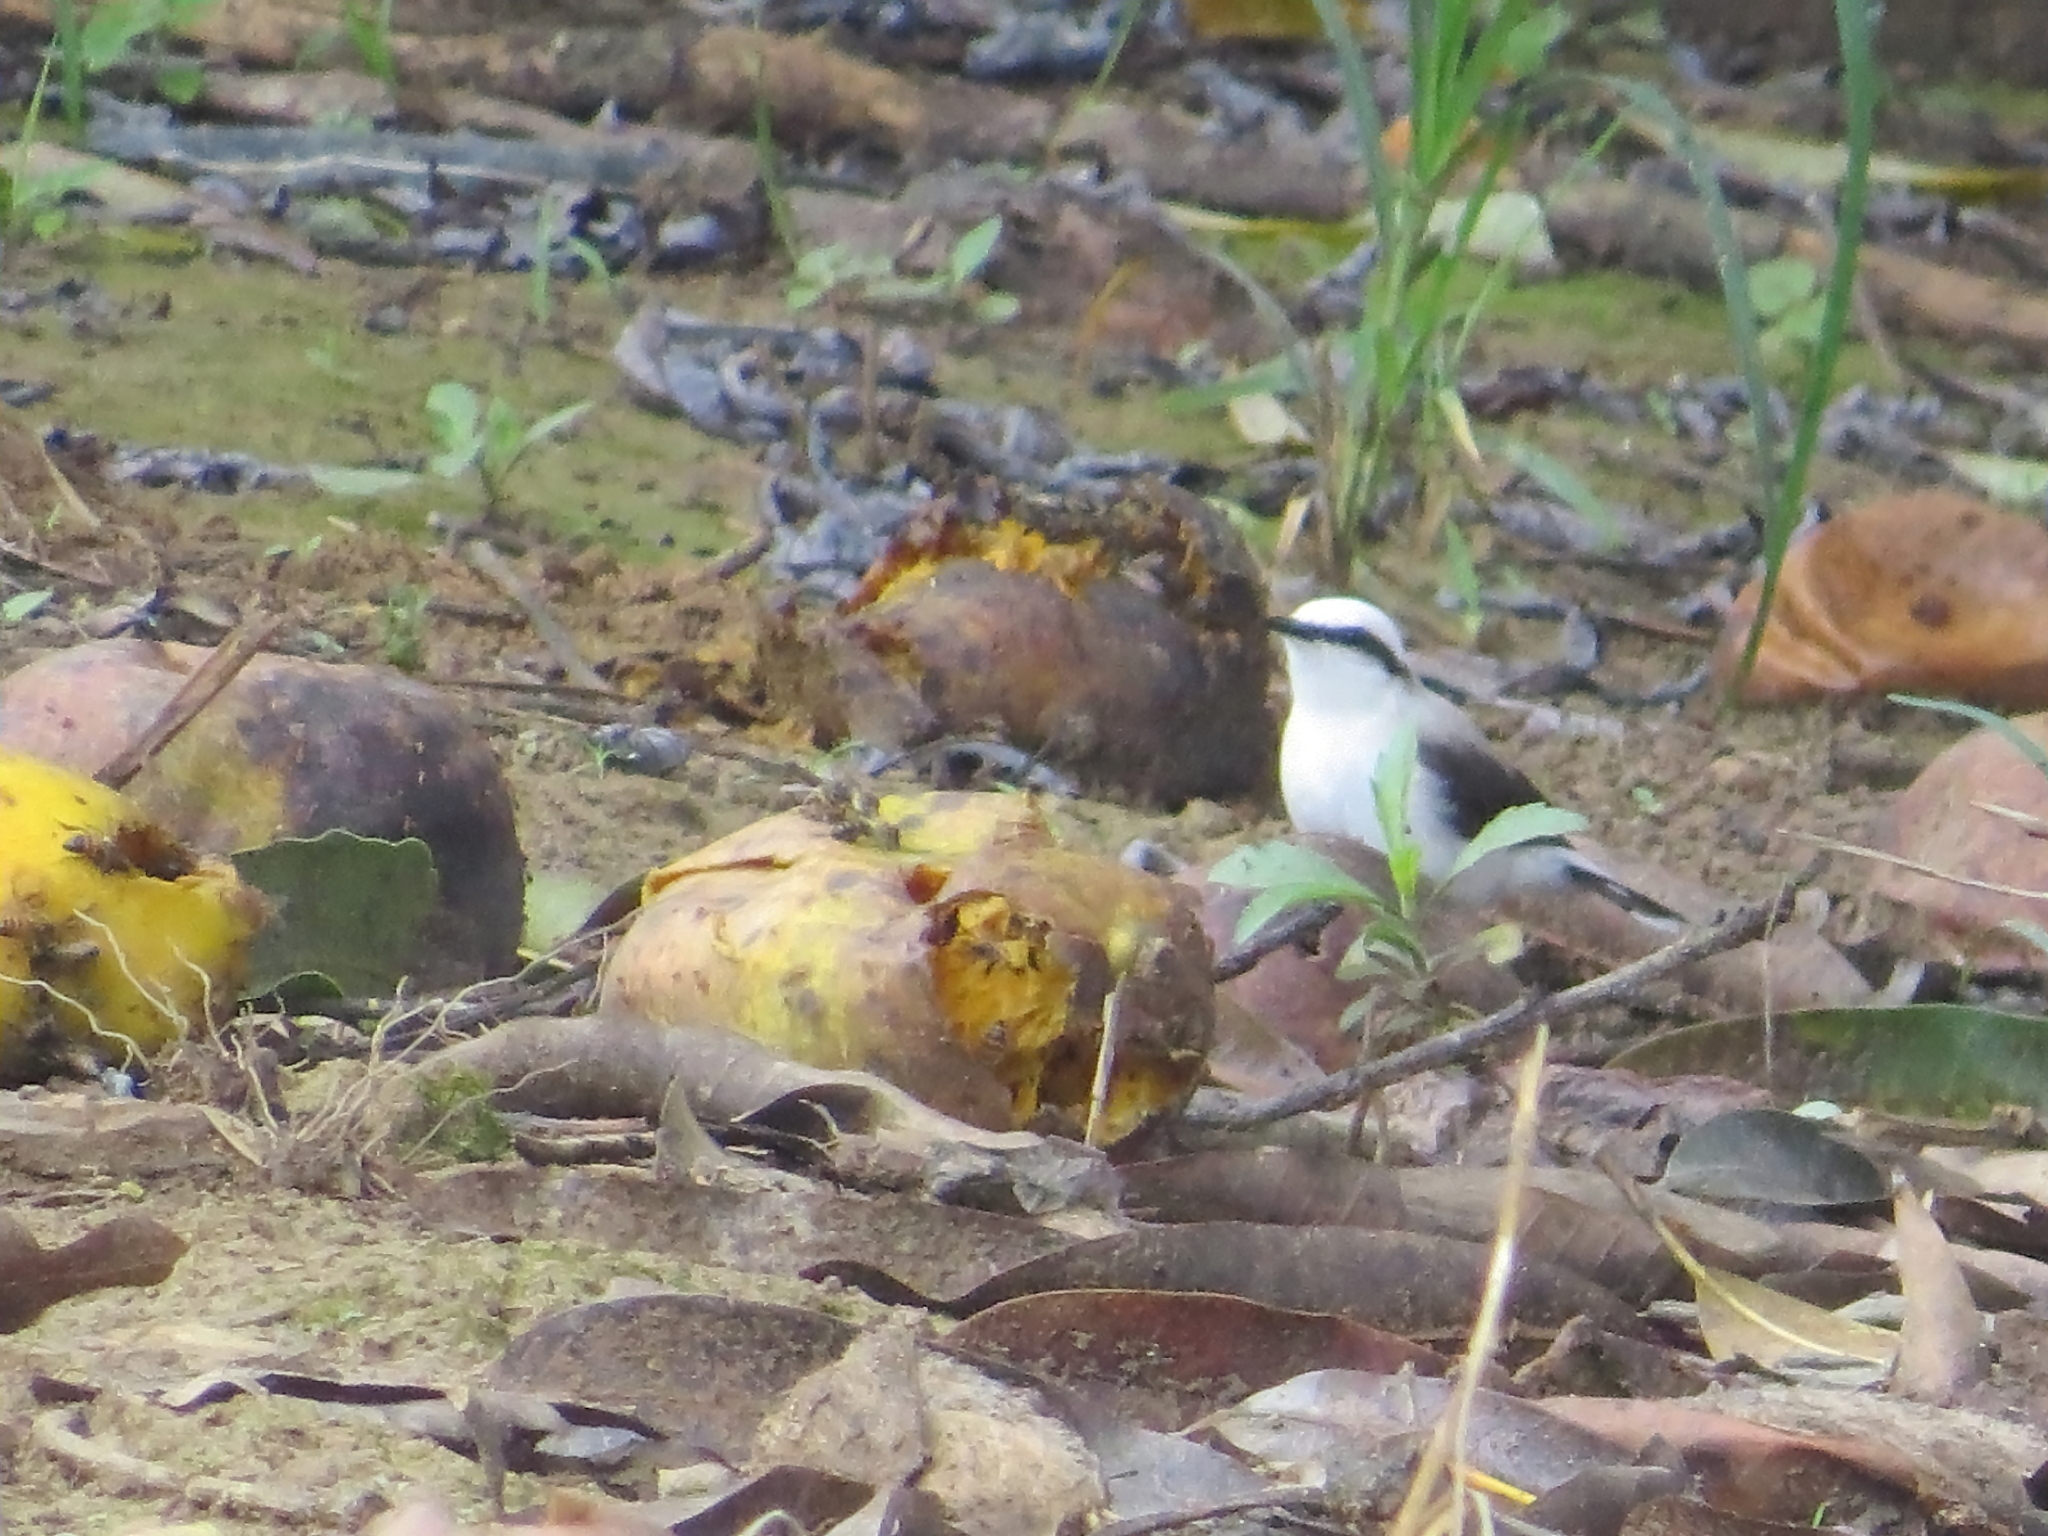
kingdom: Animalia
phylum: Chordata
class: Aves
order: Passeriformes
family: Tyrannidae
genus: Fluvicola
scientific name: Fluvicola nengeta
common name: Masked water tyrant
